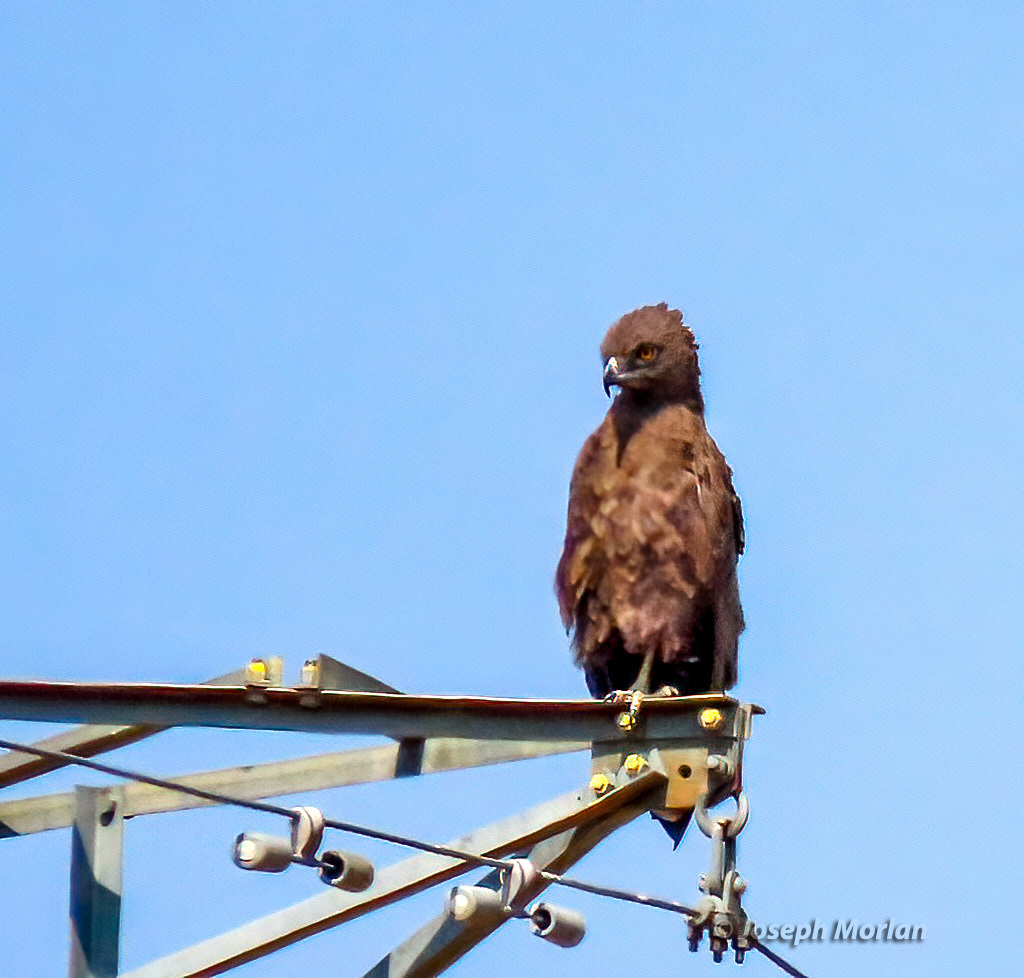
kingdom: Animalia
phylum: Chordata
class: Aves
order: Accipitriformes
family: Accipitridae
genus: Circaetus
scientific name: Circaetus cinereus
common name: Brown snake eagle
